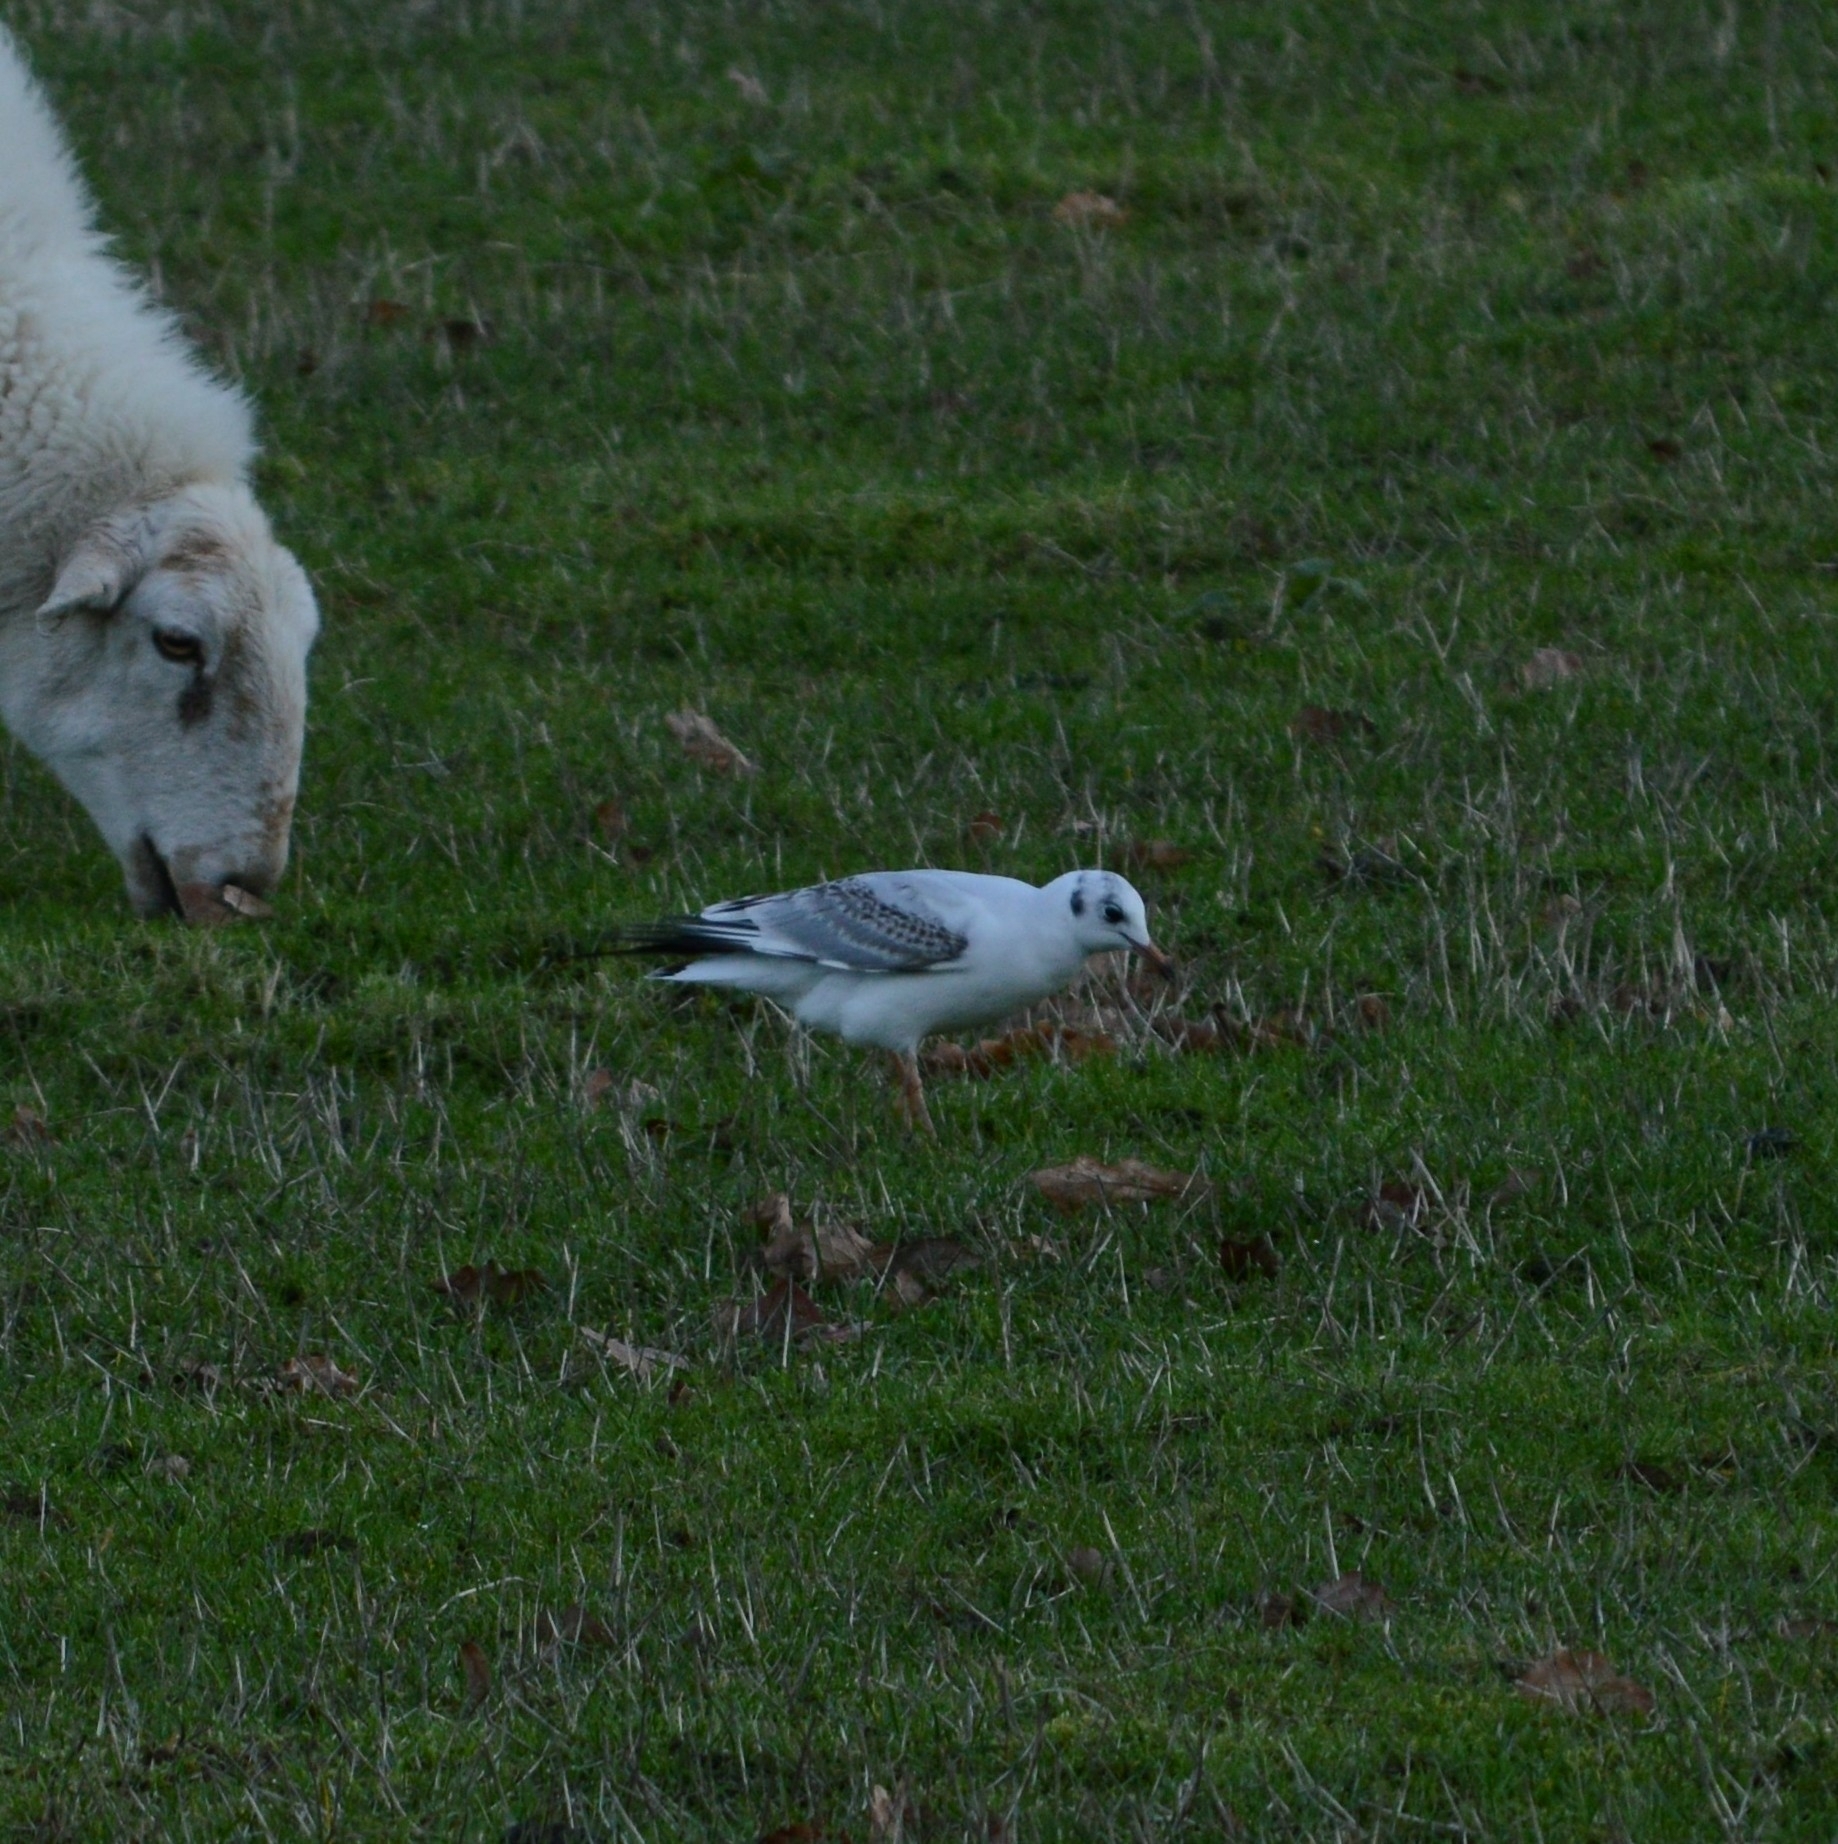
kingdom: Animalia
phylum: Chordata
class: Aves
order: Charadriiformes
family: Laridae
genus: Chroicocephalus
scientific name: Chroicocephalus ridibundus
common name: Black-headed gull
